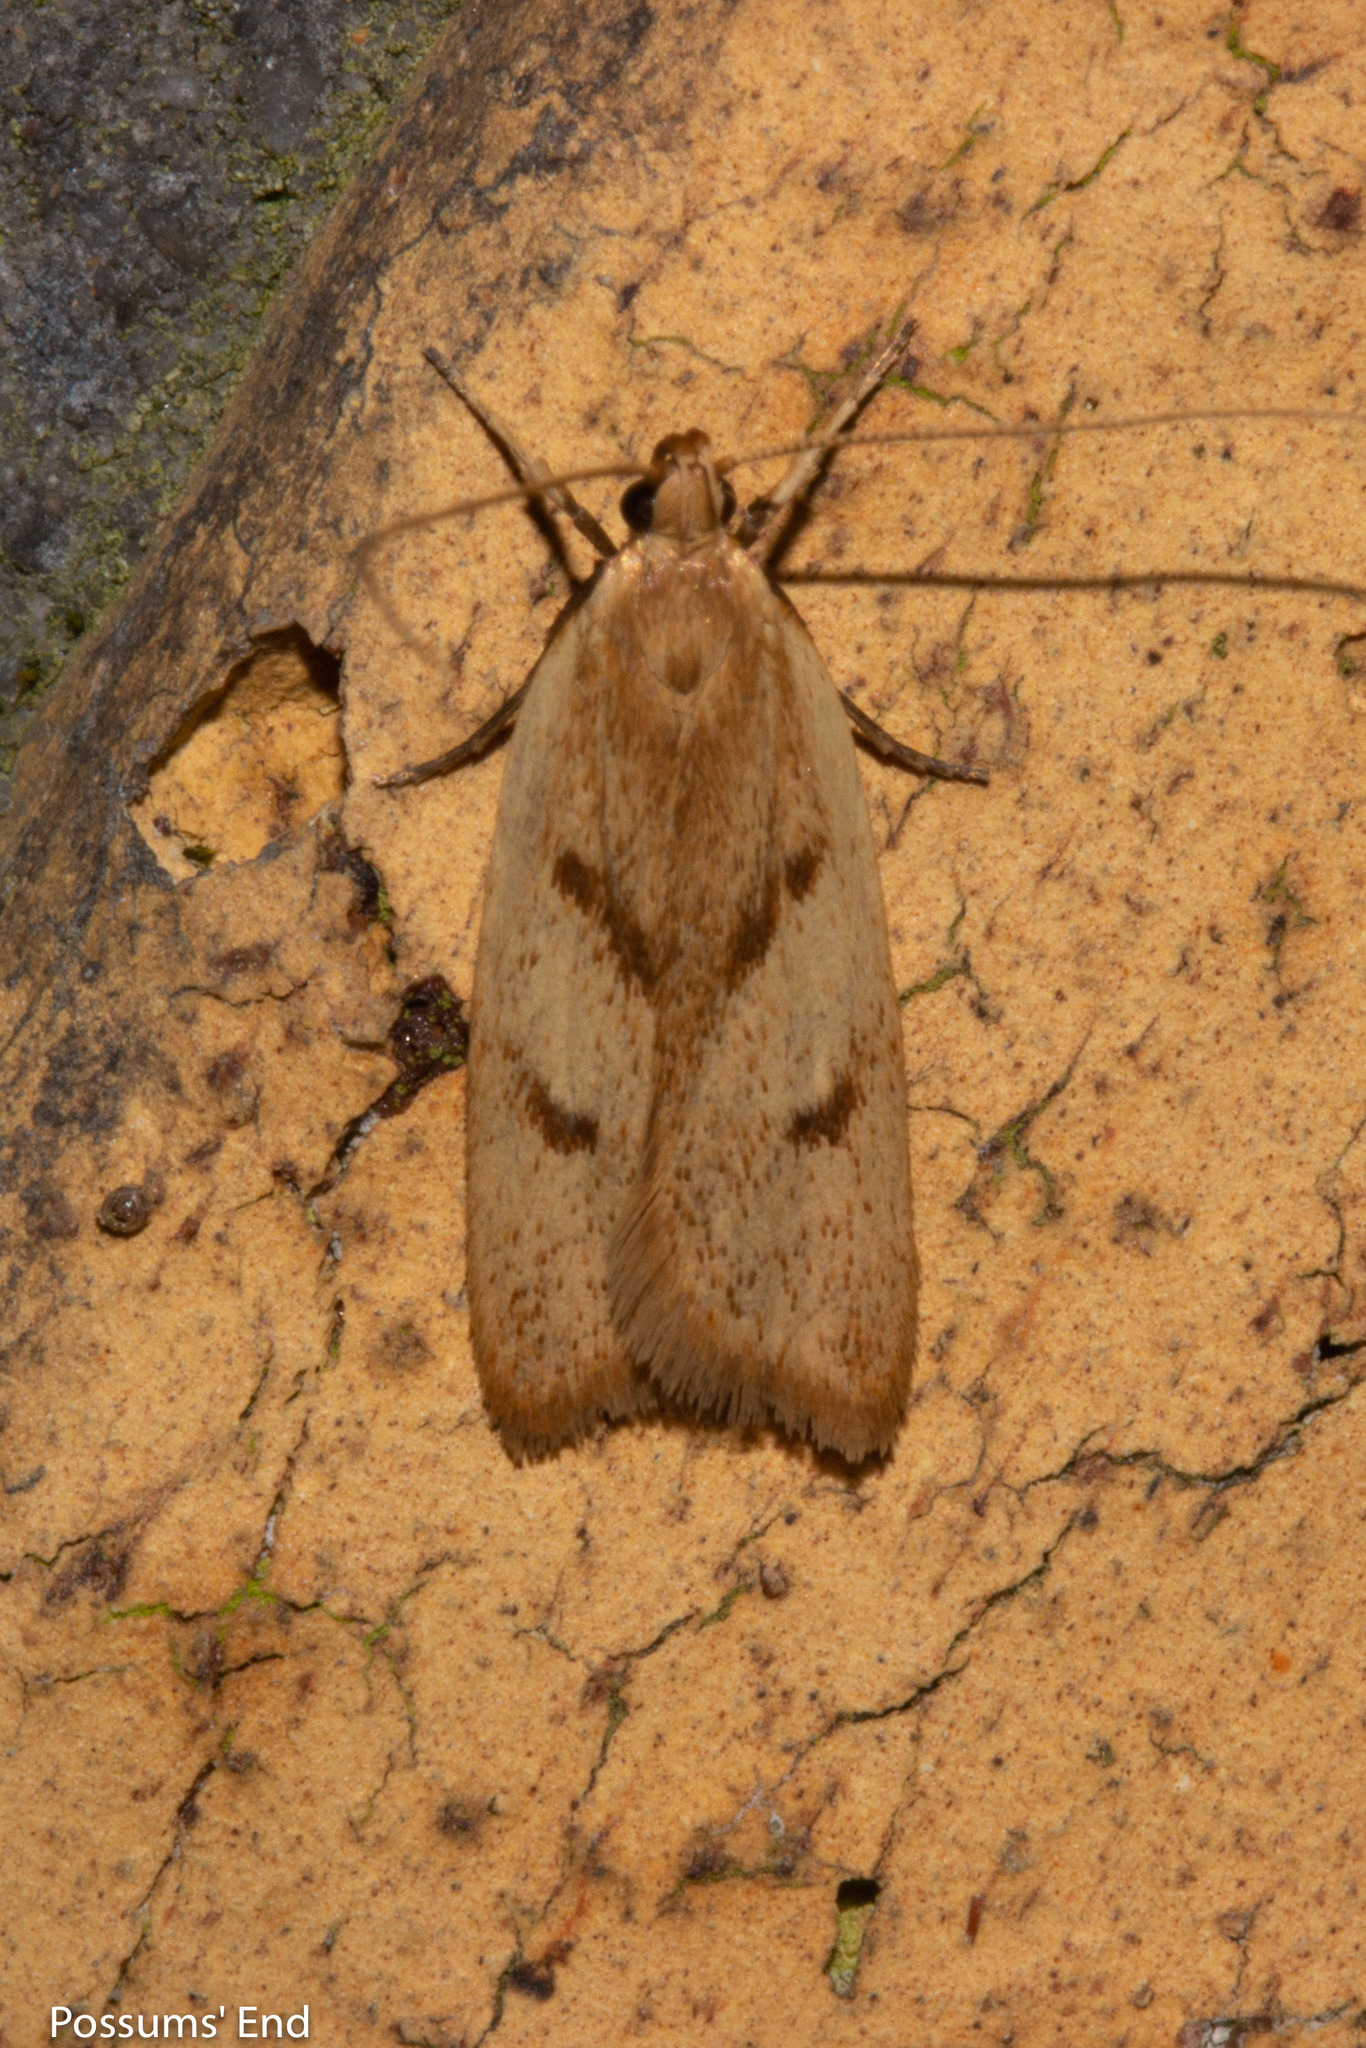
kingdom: Animalia
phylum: Arthropoda
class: Insecta
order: Lepidoptera
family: Oecophoridae
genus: Gymnobathra
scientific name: Gymnobathra sarcoxantha
